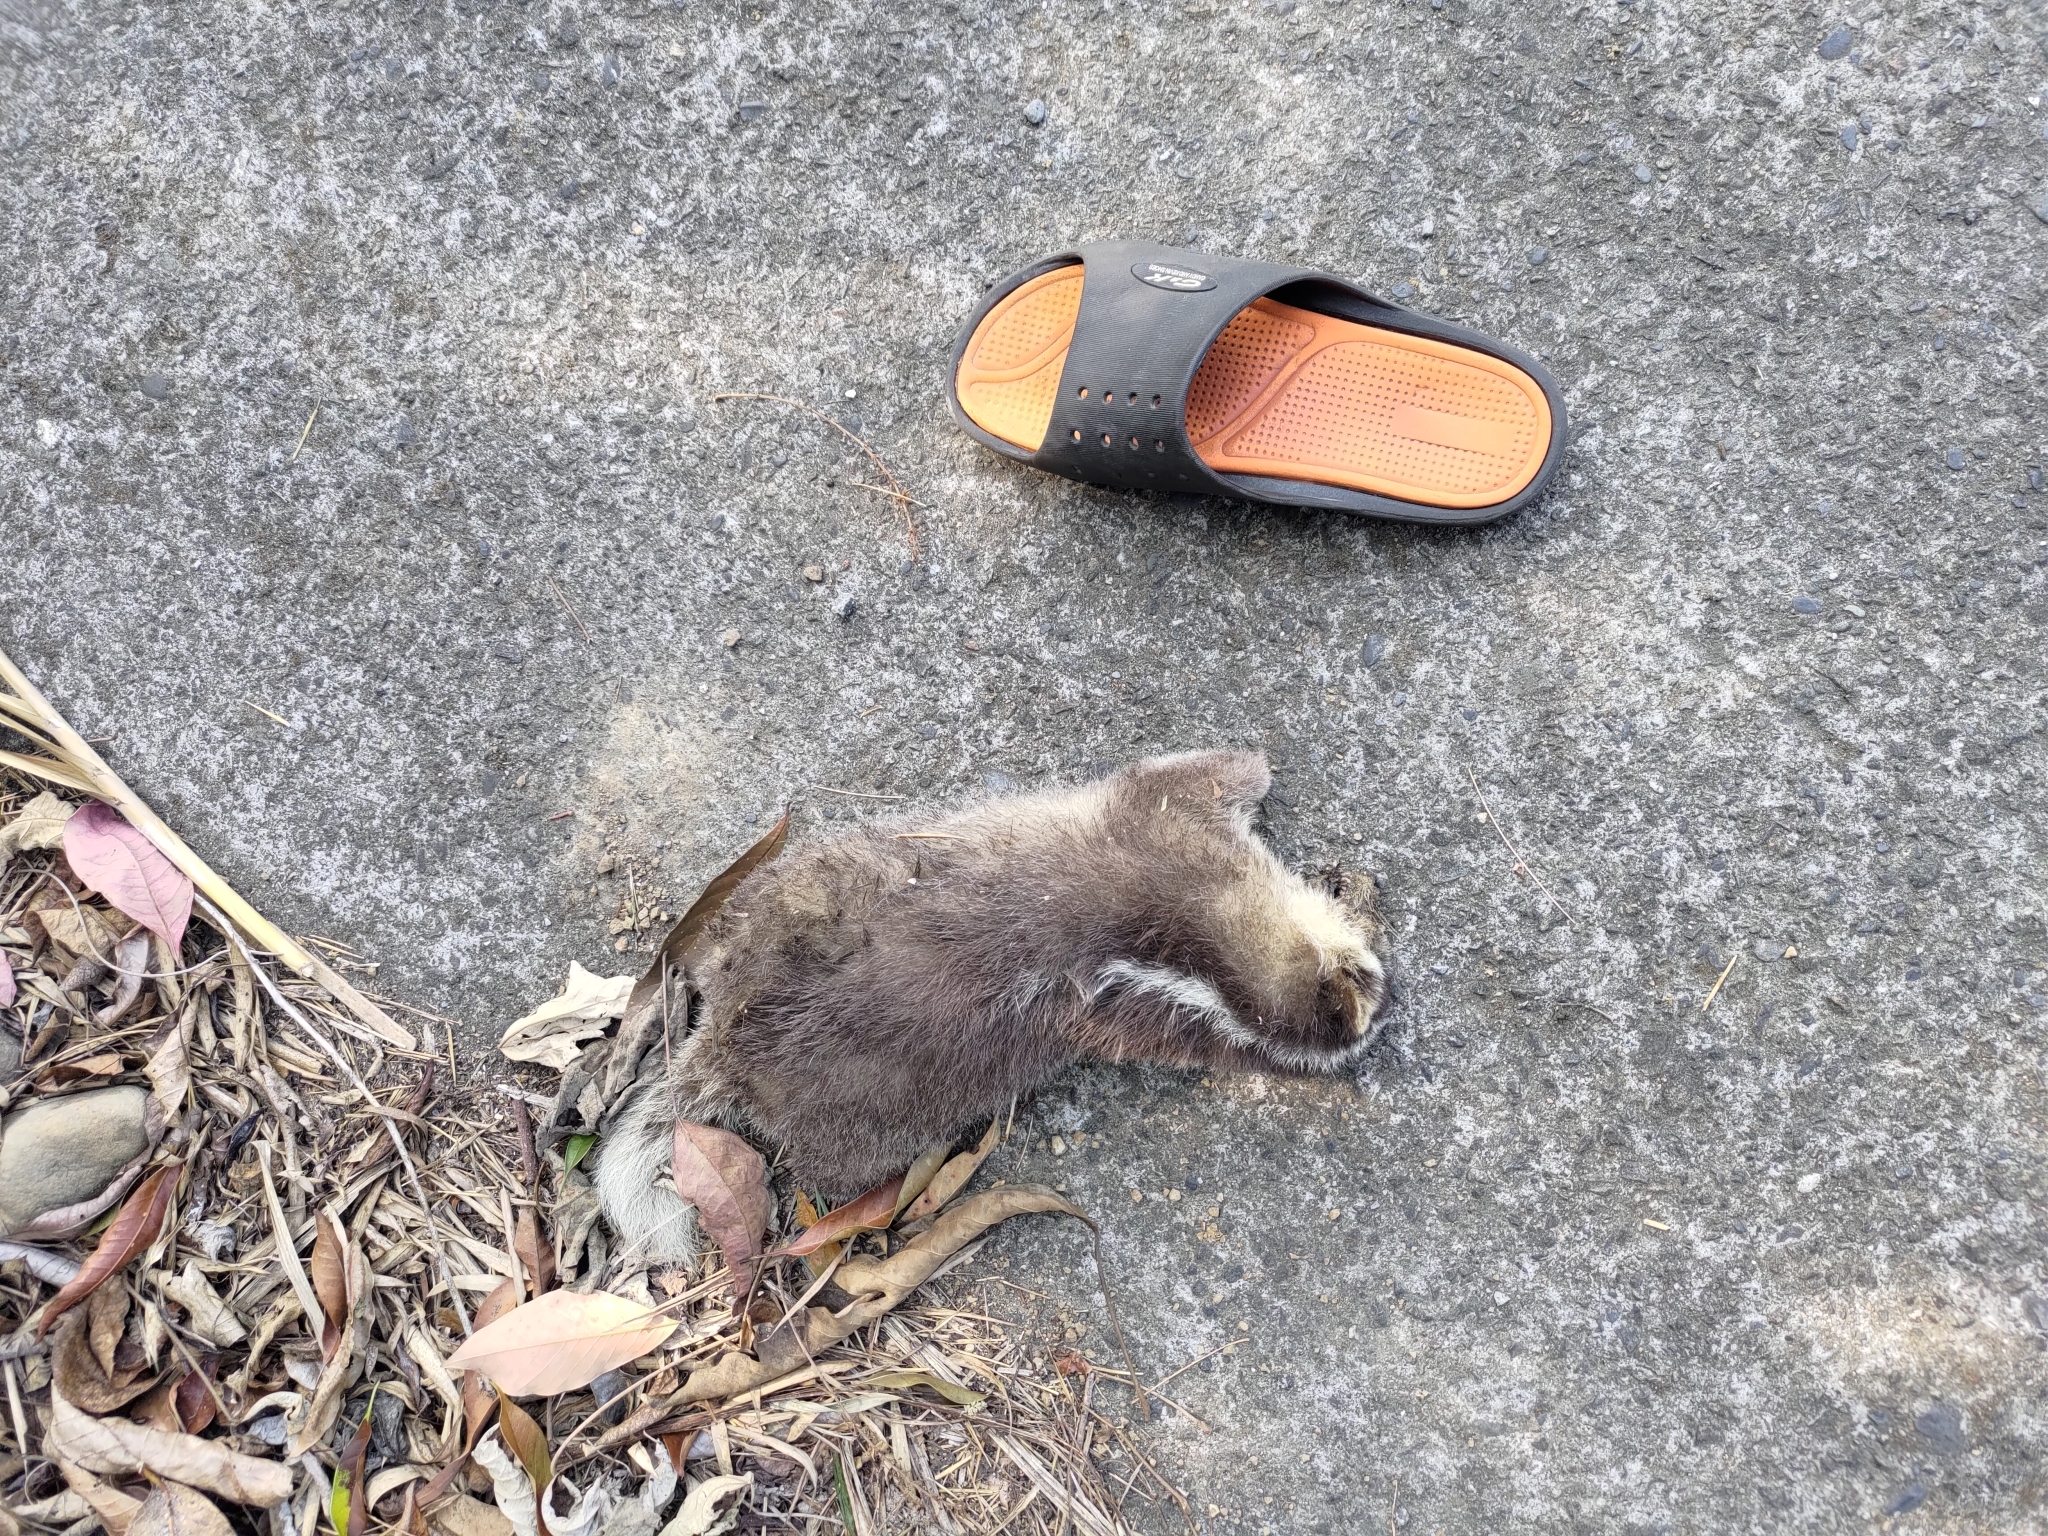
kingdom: Animalia
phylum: Chordata
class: Mammalia
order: Carnivora
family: Mustelidae
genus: Melogale
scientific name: Melogale
